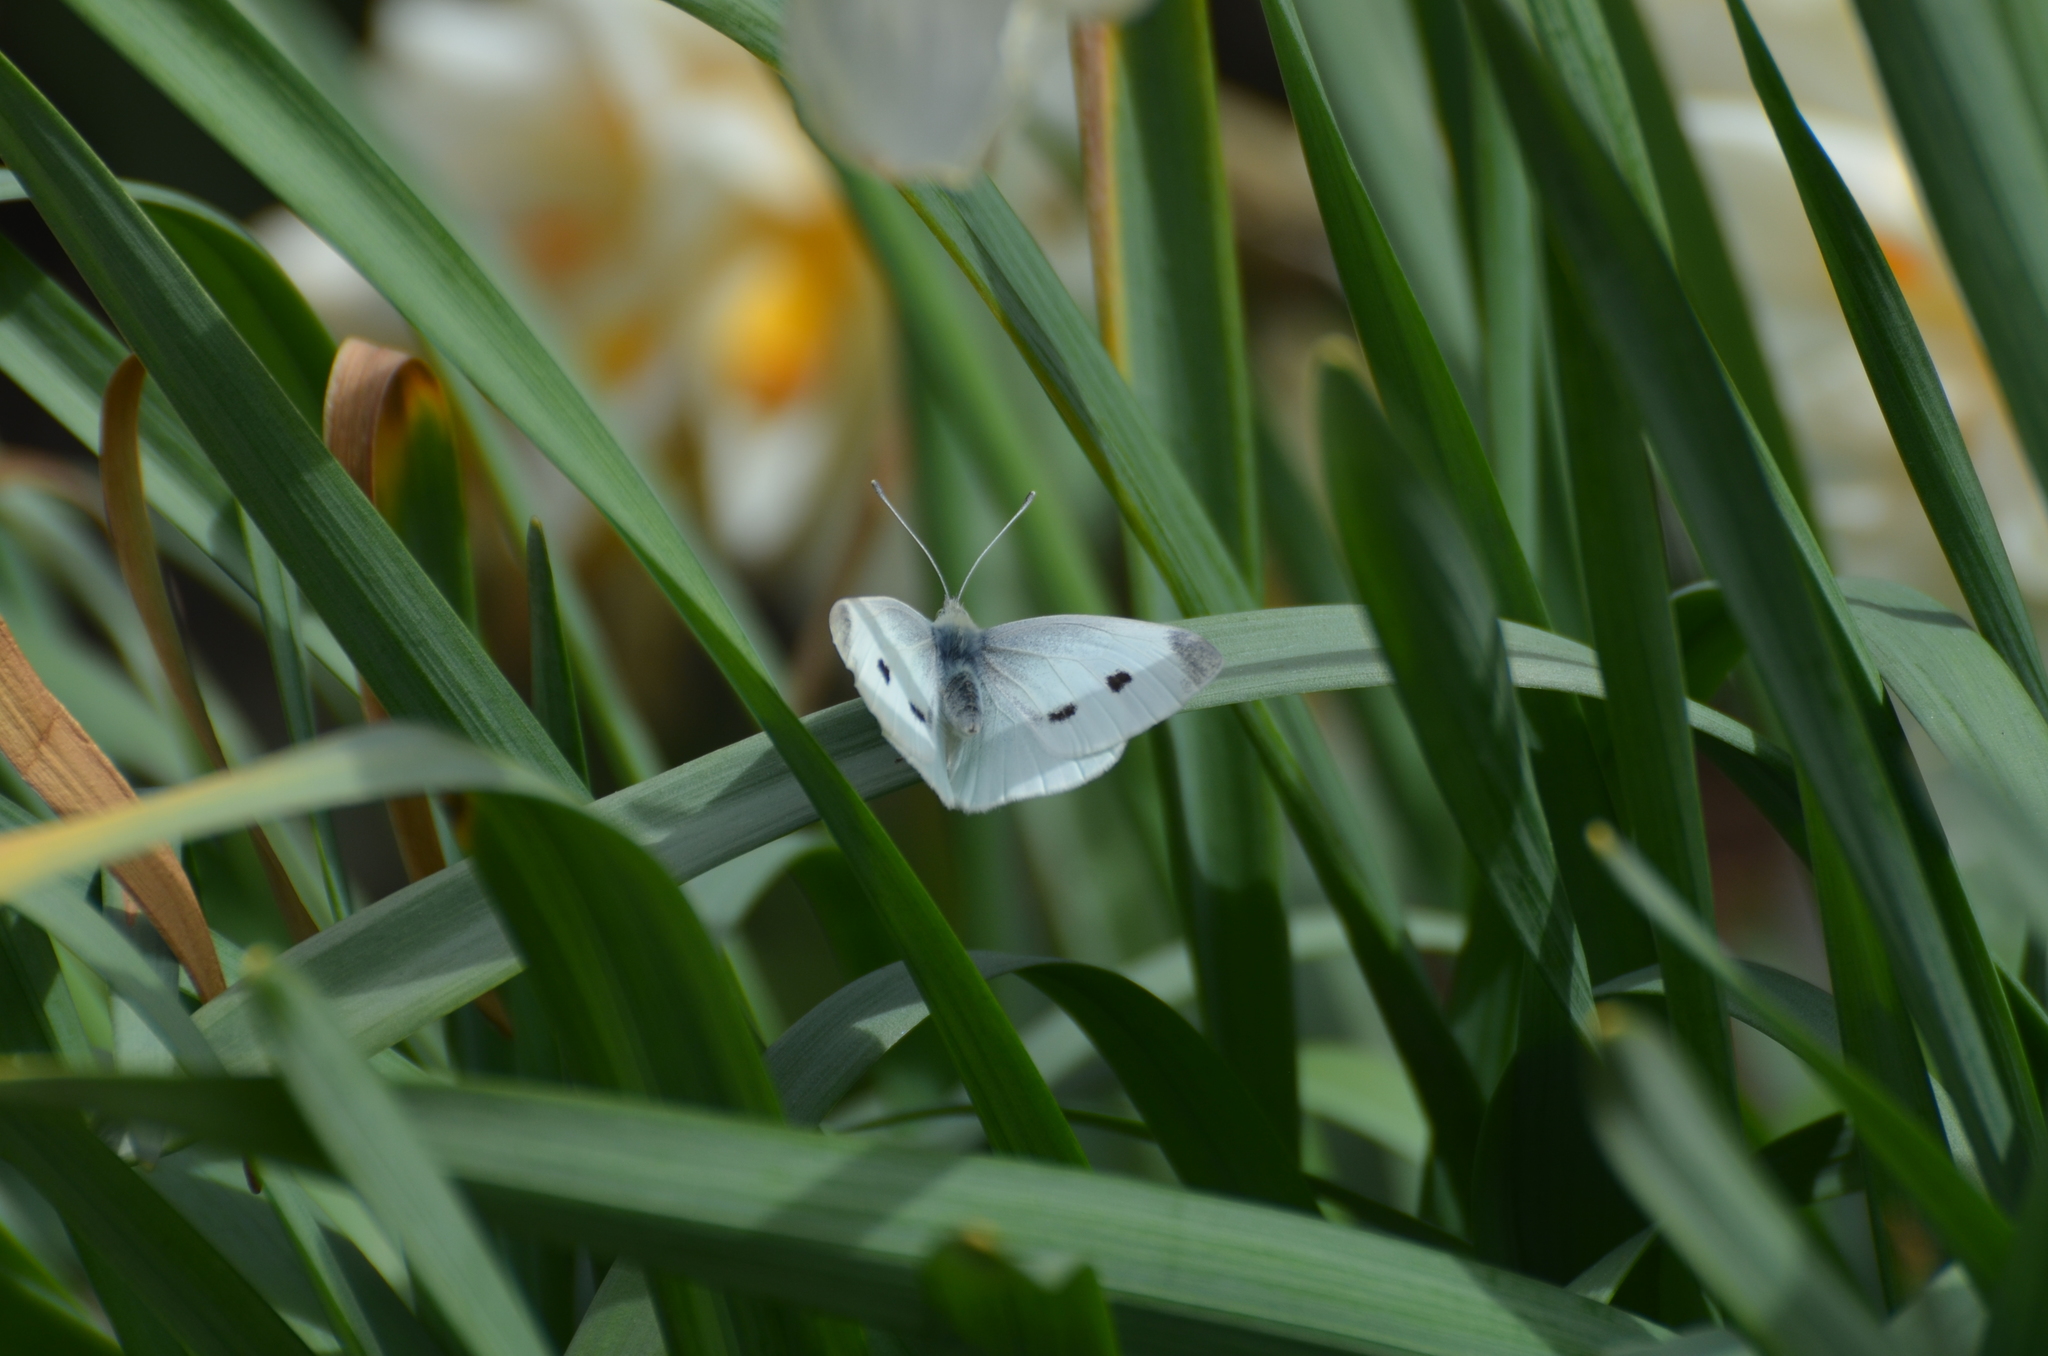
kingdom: Animalia
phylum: Arthropoda
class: Insecta
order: Lepidoptera
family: Pieridae
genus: Pieris
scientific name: Pieris rapae
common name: Small white
